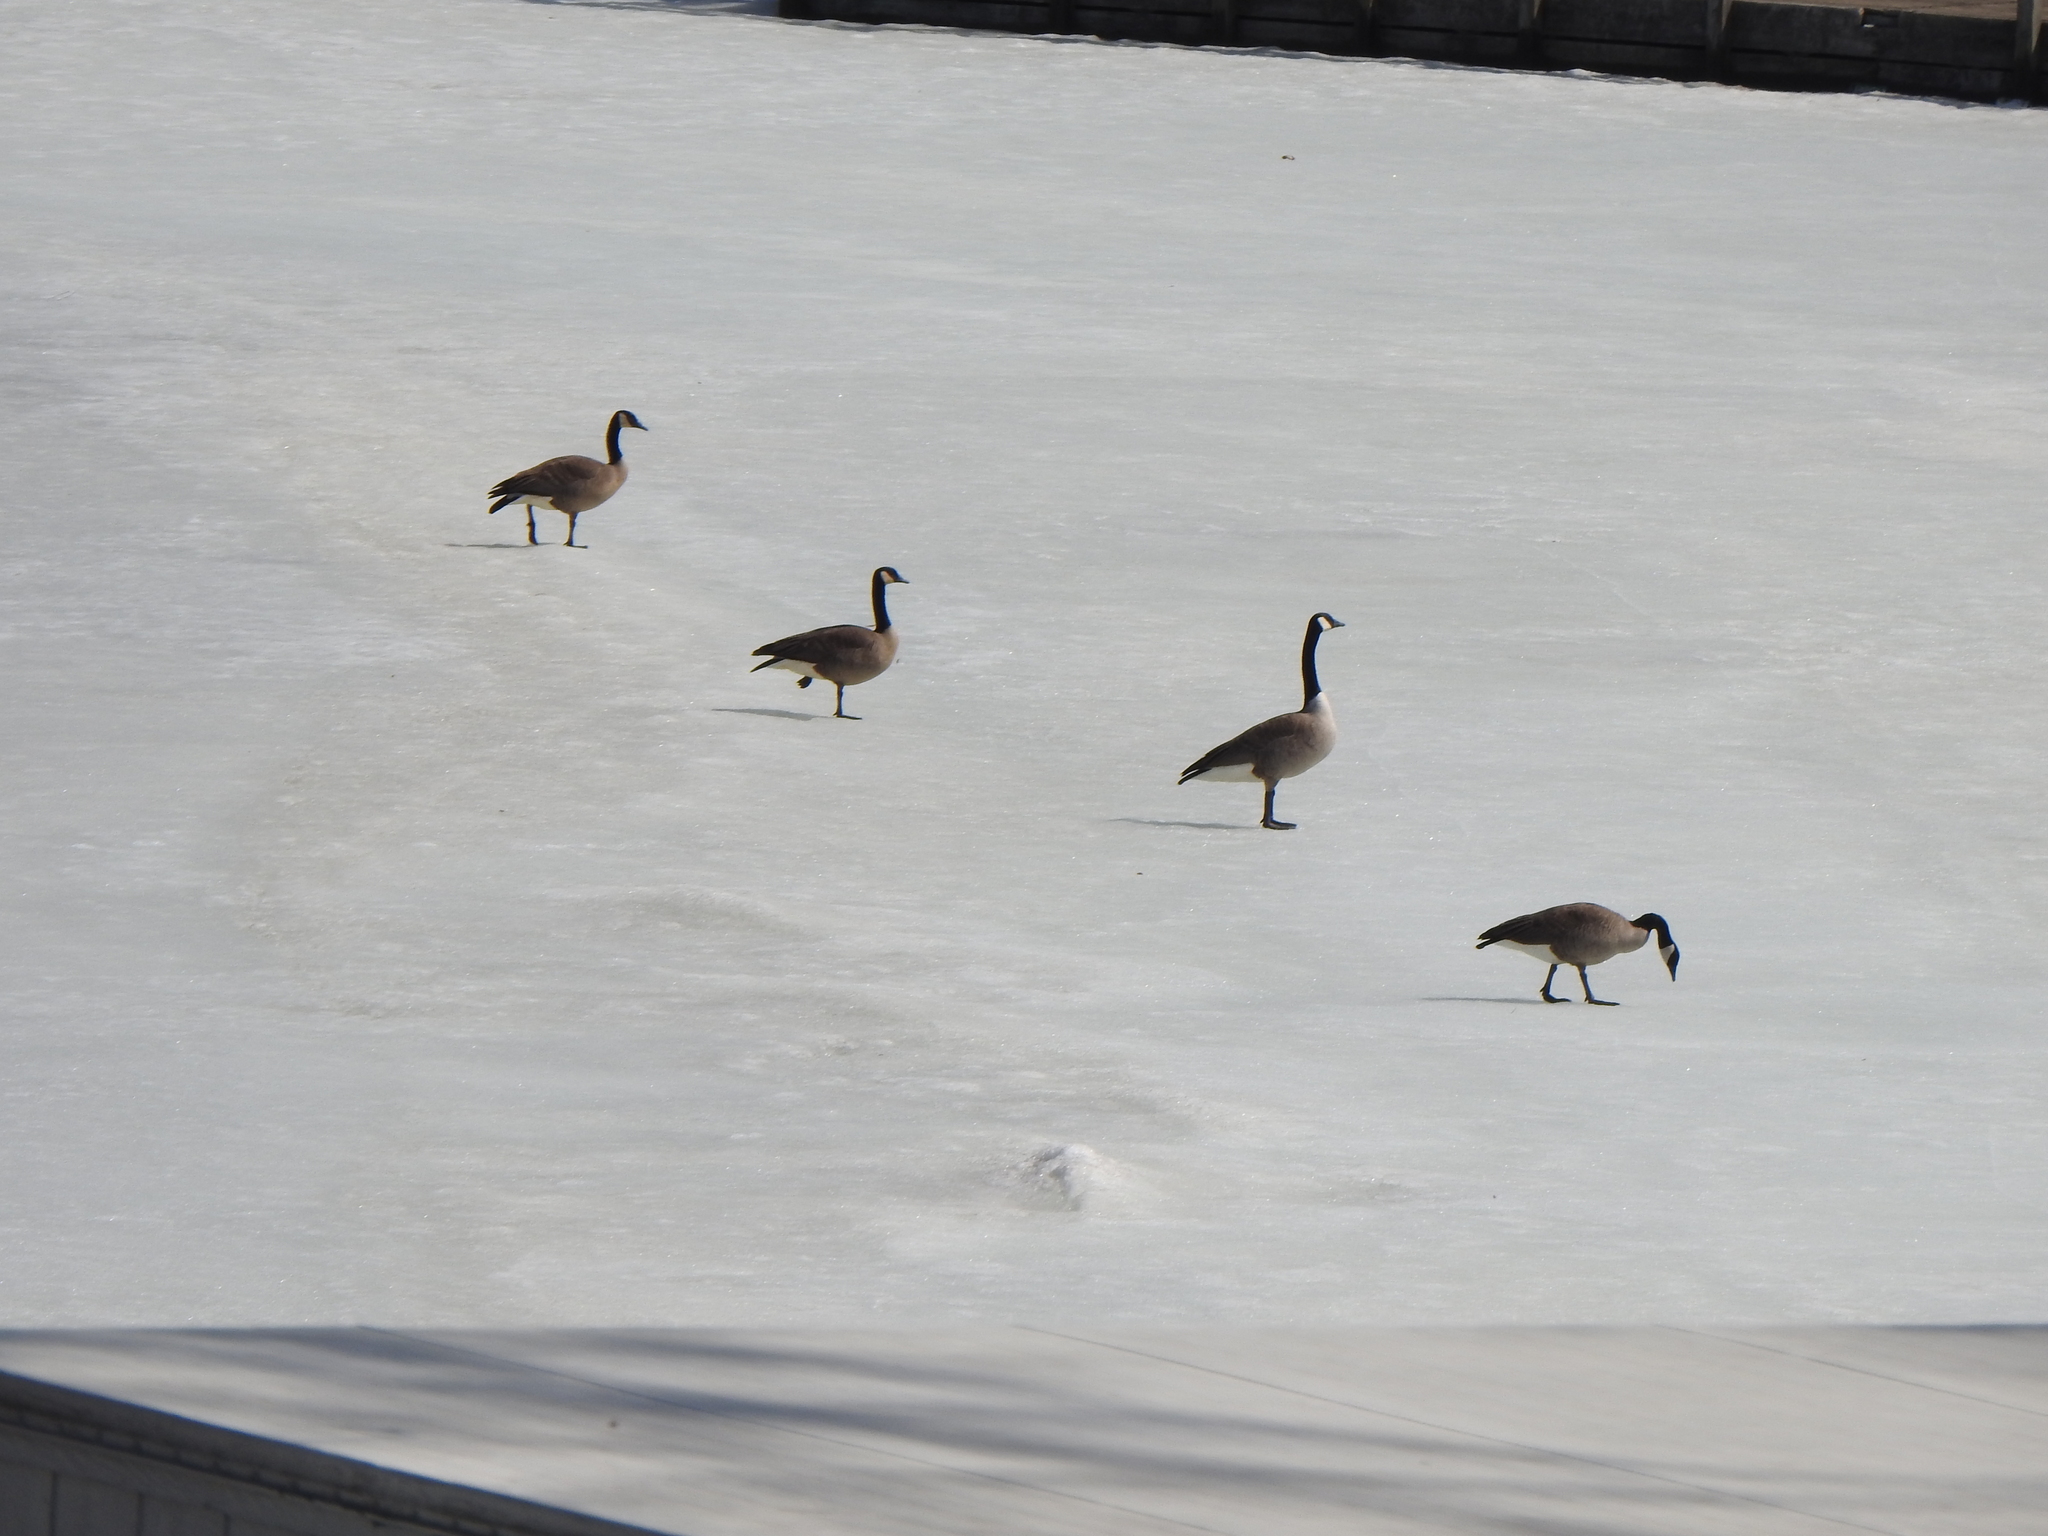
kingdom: Animalia
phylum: Chordata
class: Aves
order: Anseriformes
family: Anatidae
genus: Branta
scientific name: Branta canadensis
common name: Canada goose
